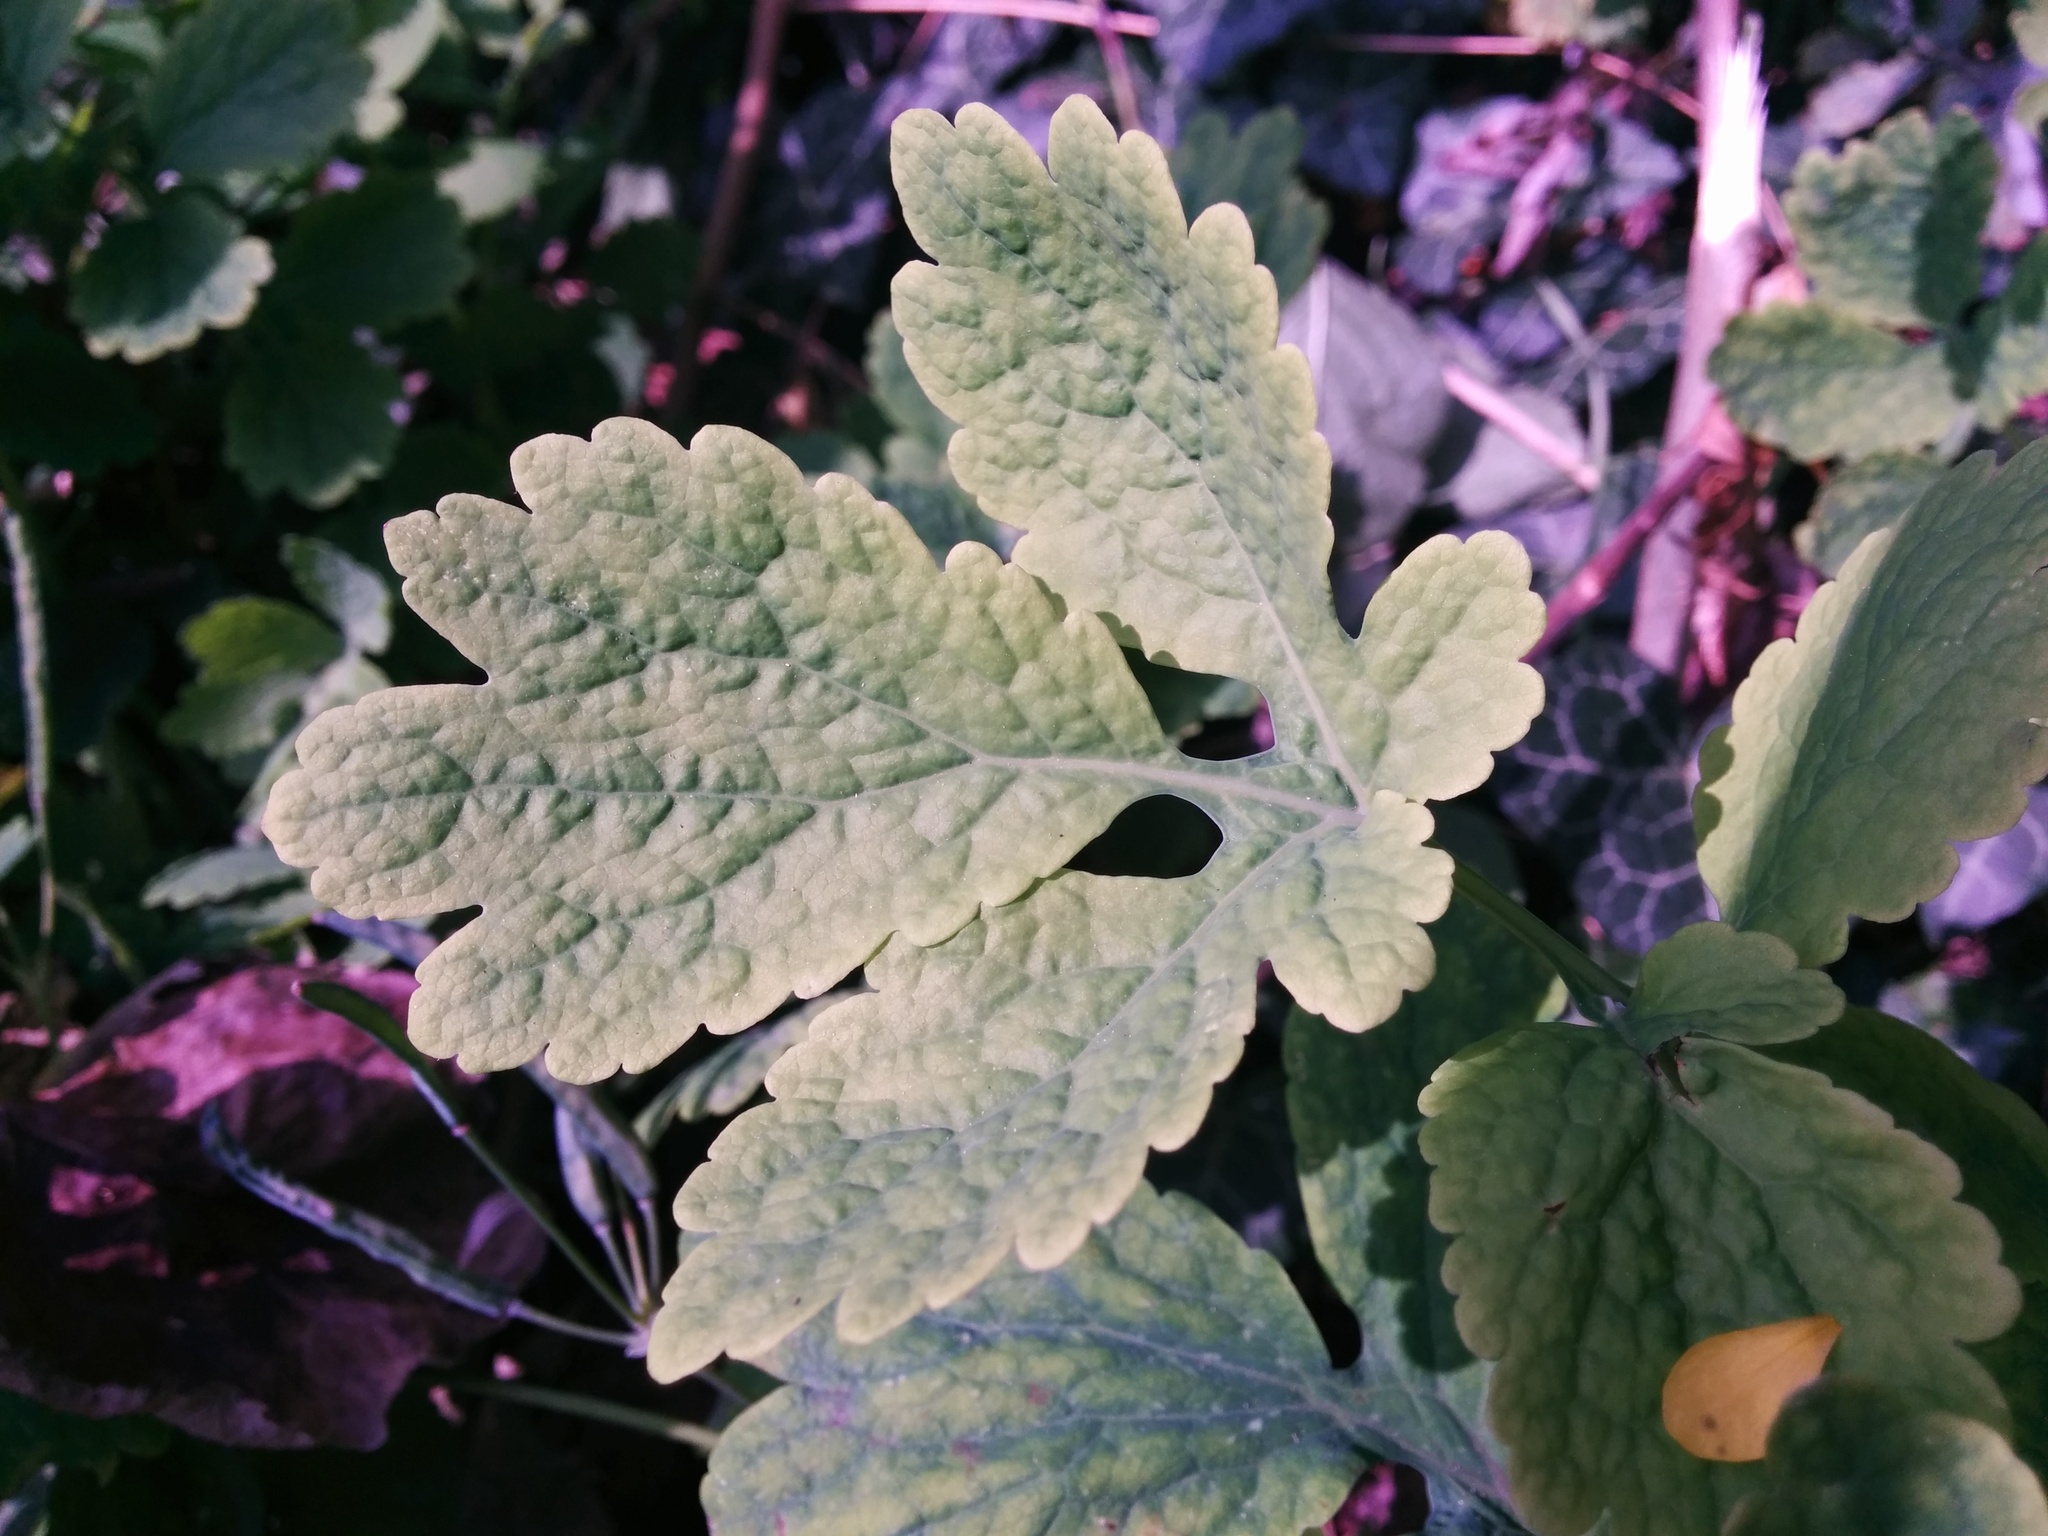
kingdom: Plantae
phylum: Tracheophyta
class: Magnoliopsida
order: Ranunculales
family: Papaveraceae
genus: Chelidonium
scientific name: Chelidonium majus
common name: Greater celandine
